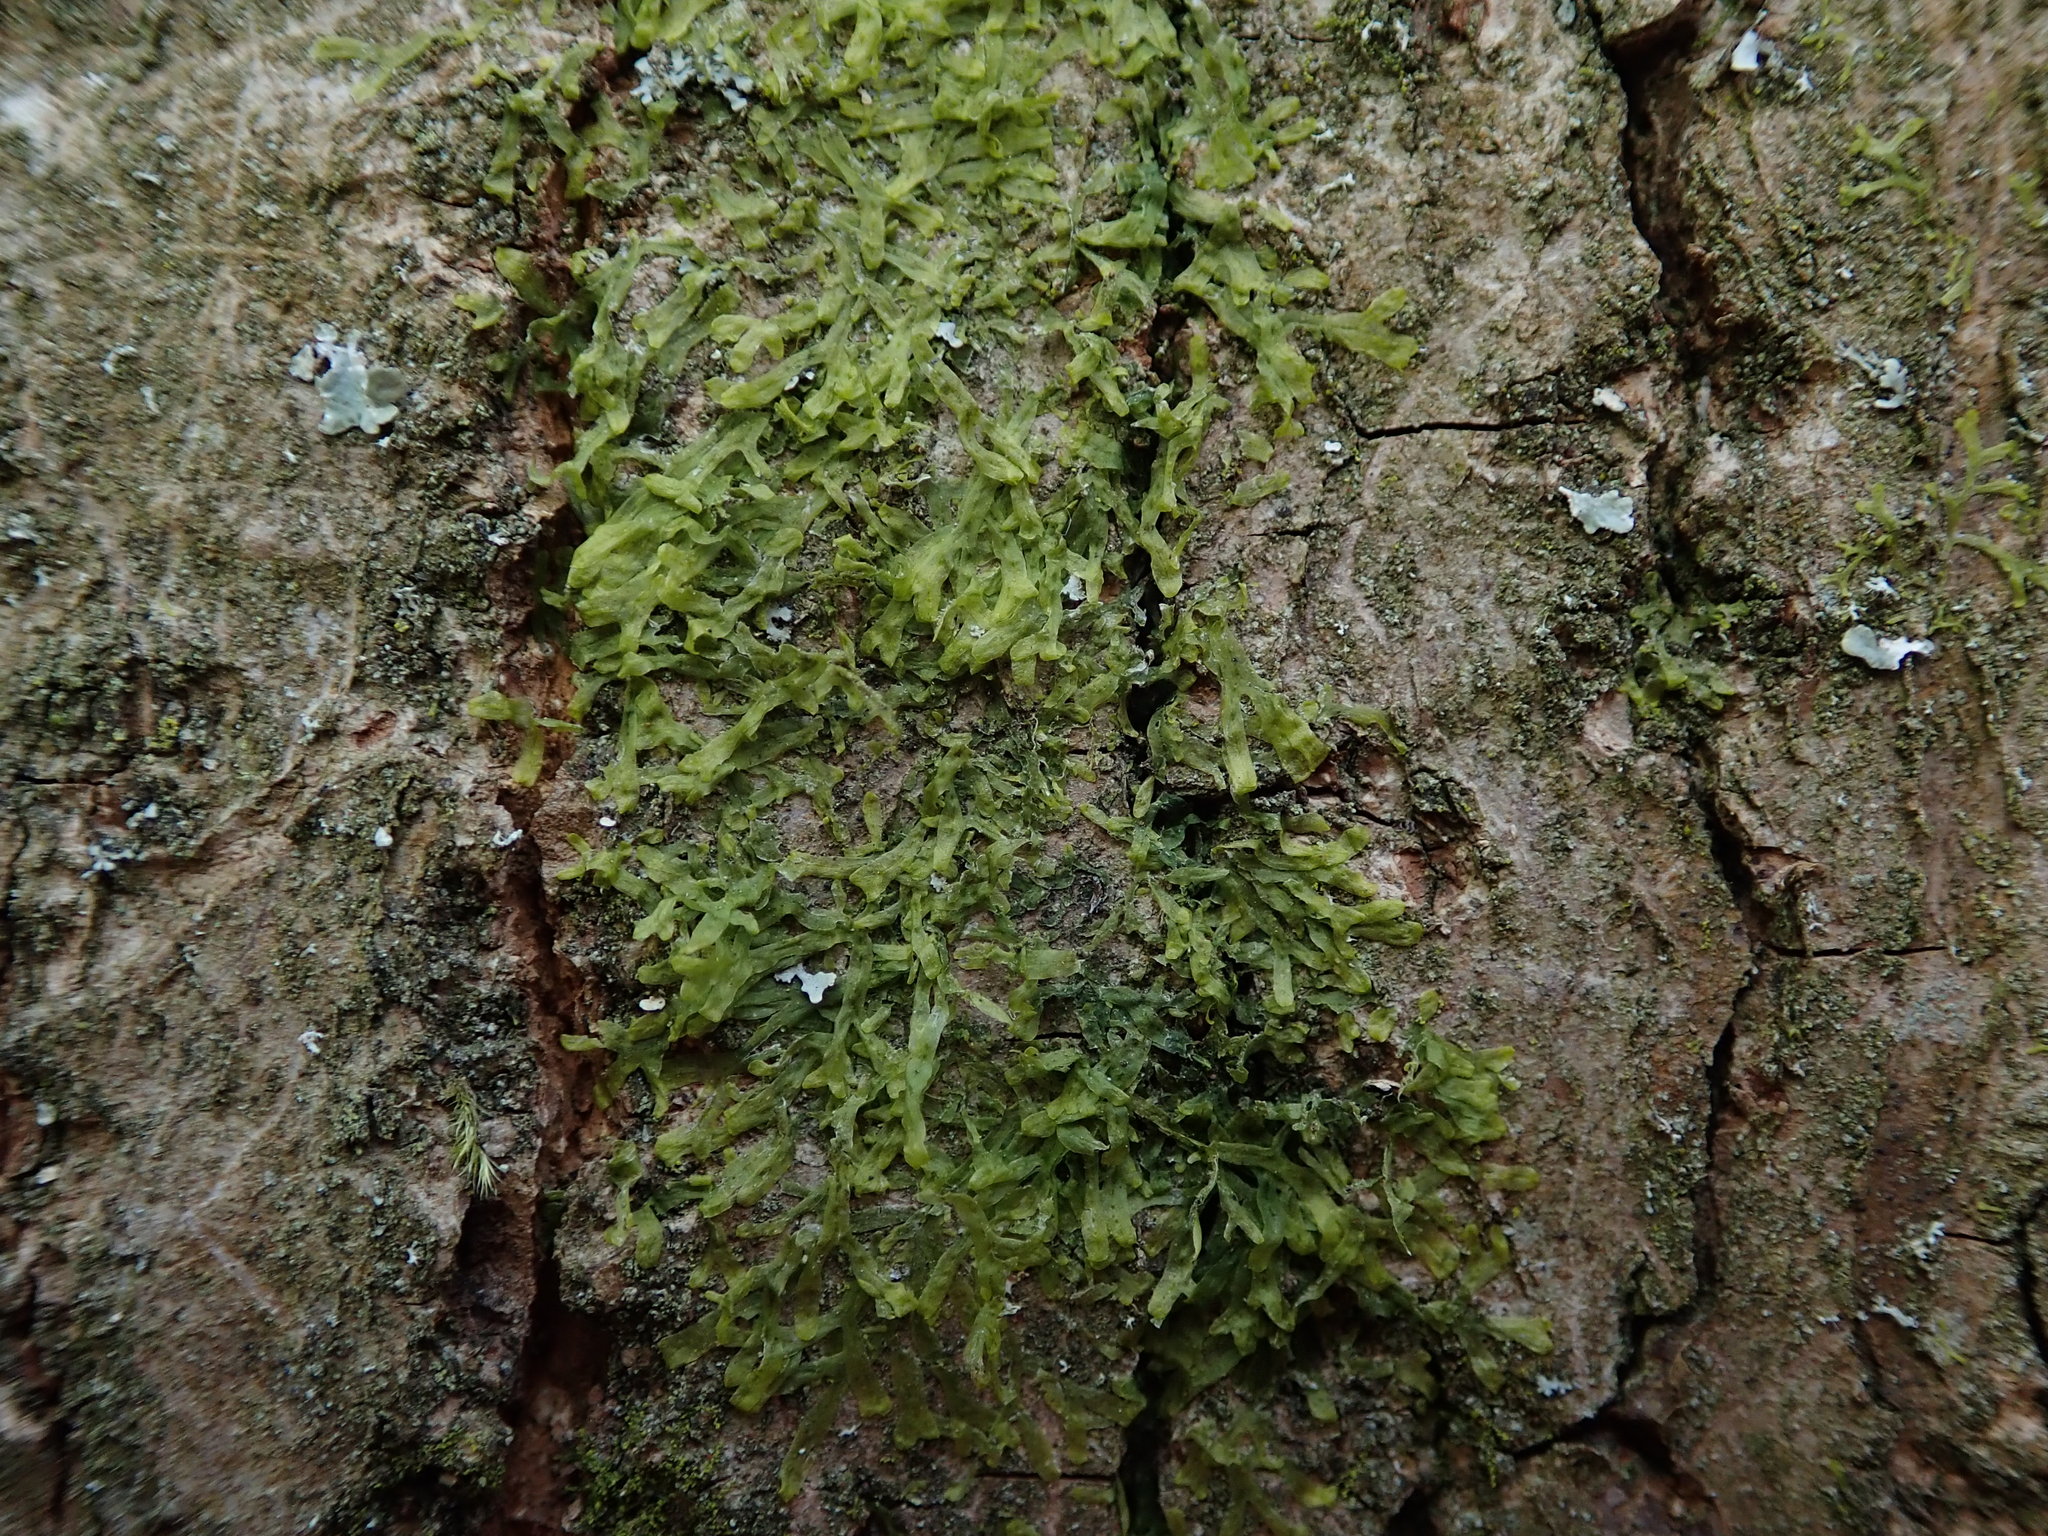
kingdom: Plantae
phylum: Marchantiophyta
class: Jungermanniopsida
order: Metzgeriales
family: Metzgeriaceae
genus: Metzgeria
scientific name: Metzgeria furcata
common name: Forked veilwort
